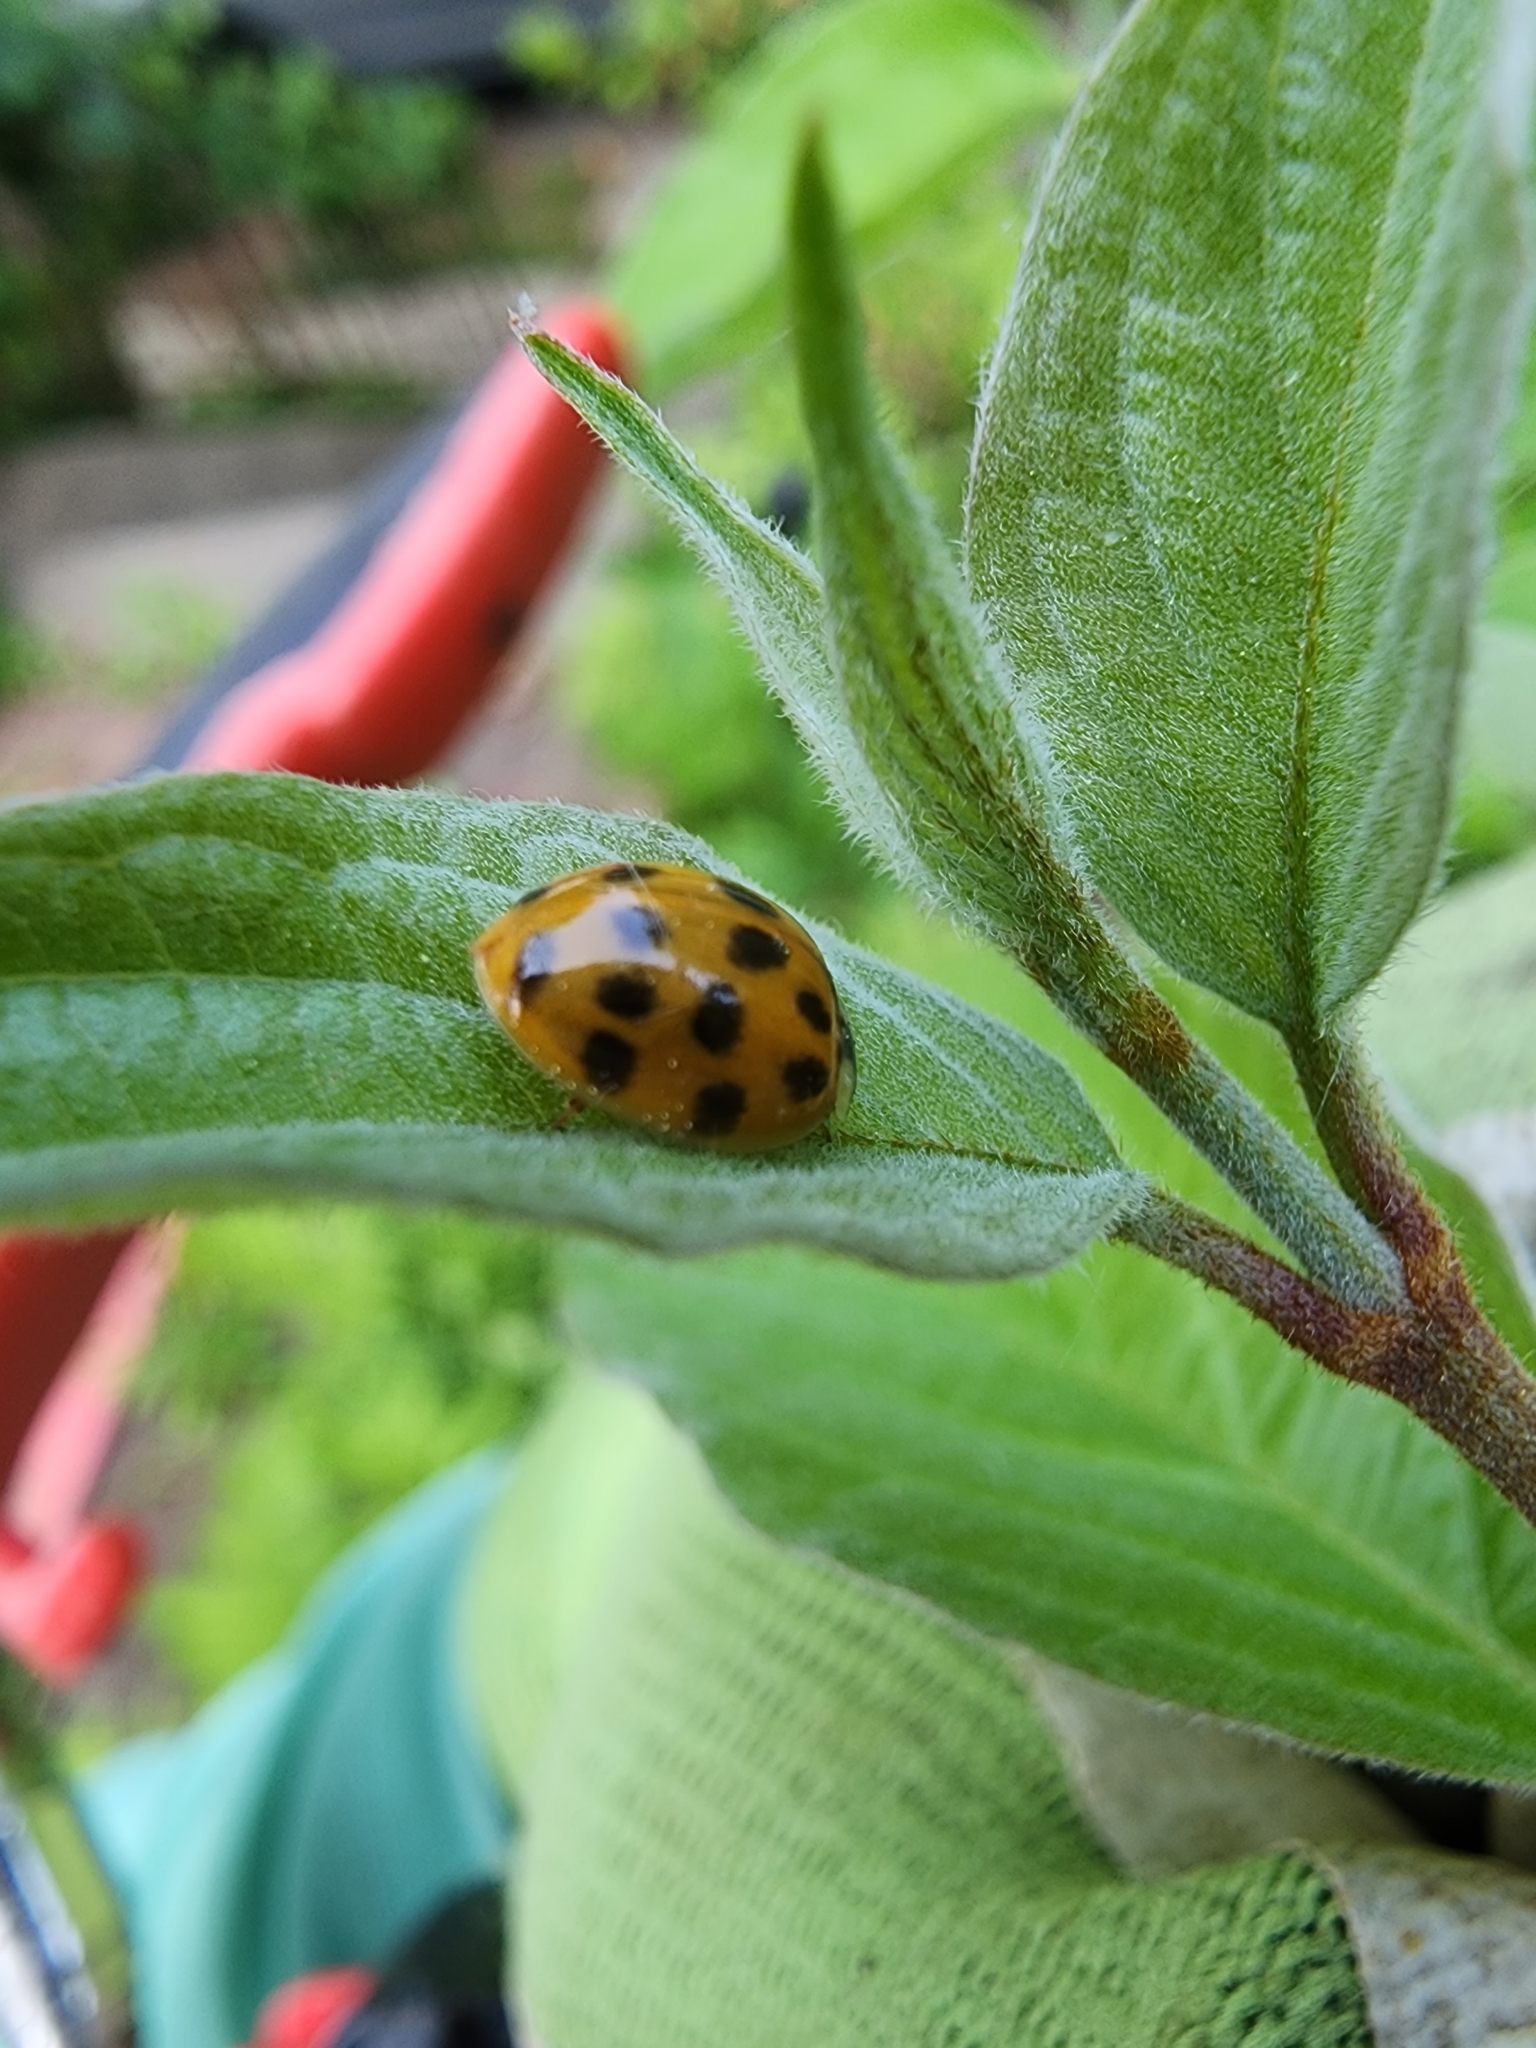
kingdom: Animalia
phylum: Arthropoda
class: Insecta
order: Coleoptera
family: Coccinellidae
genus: Harmonia
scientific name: Harmonia axyridis
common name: Harlequin ladybird
